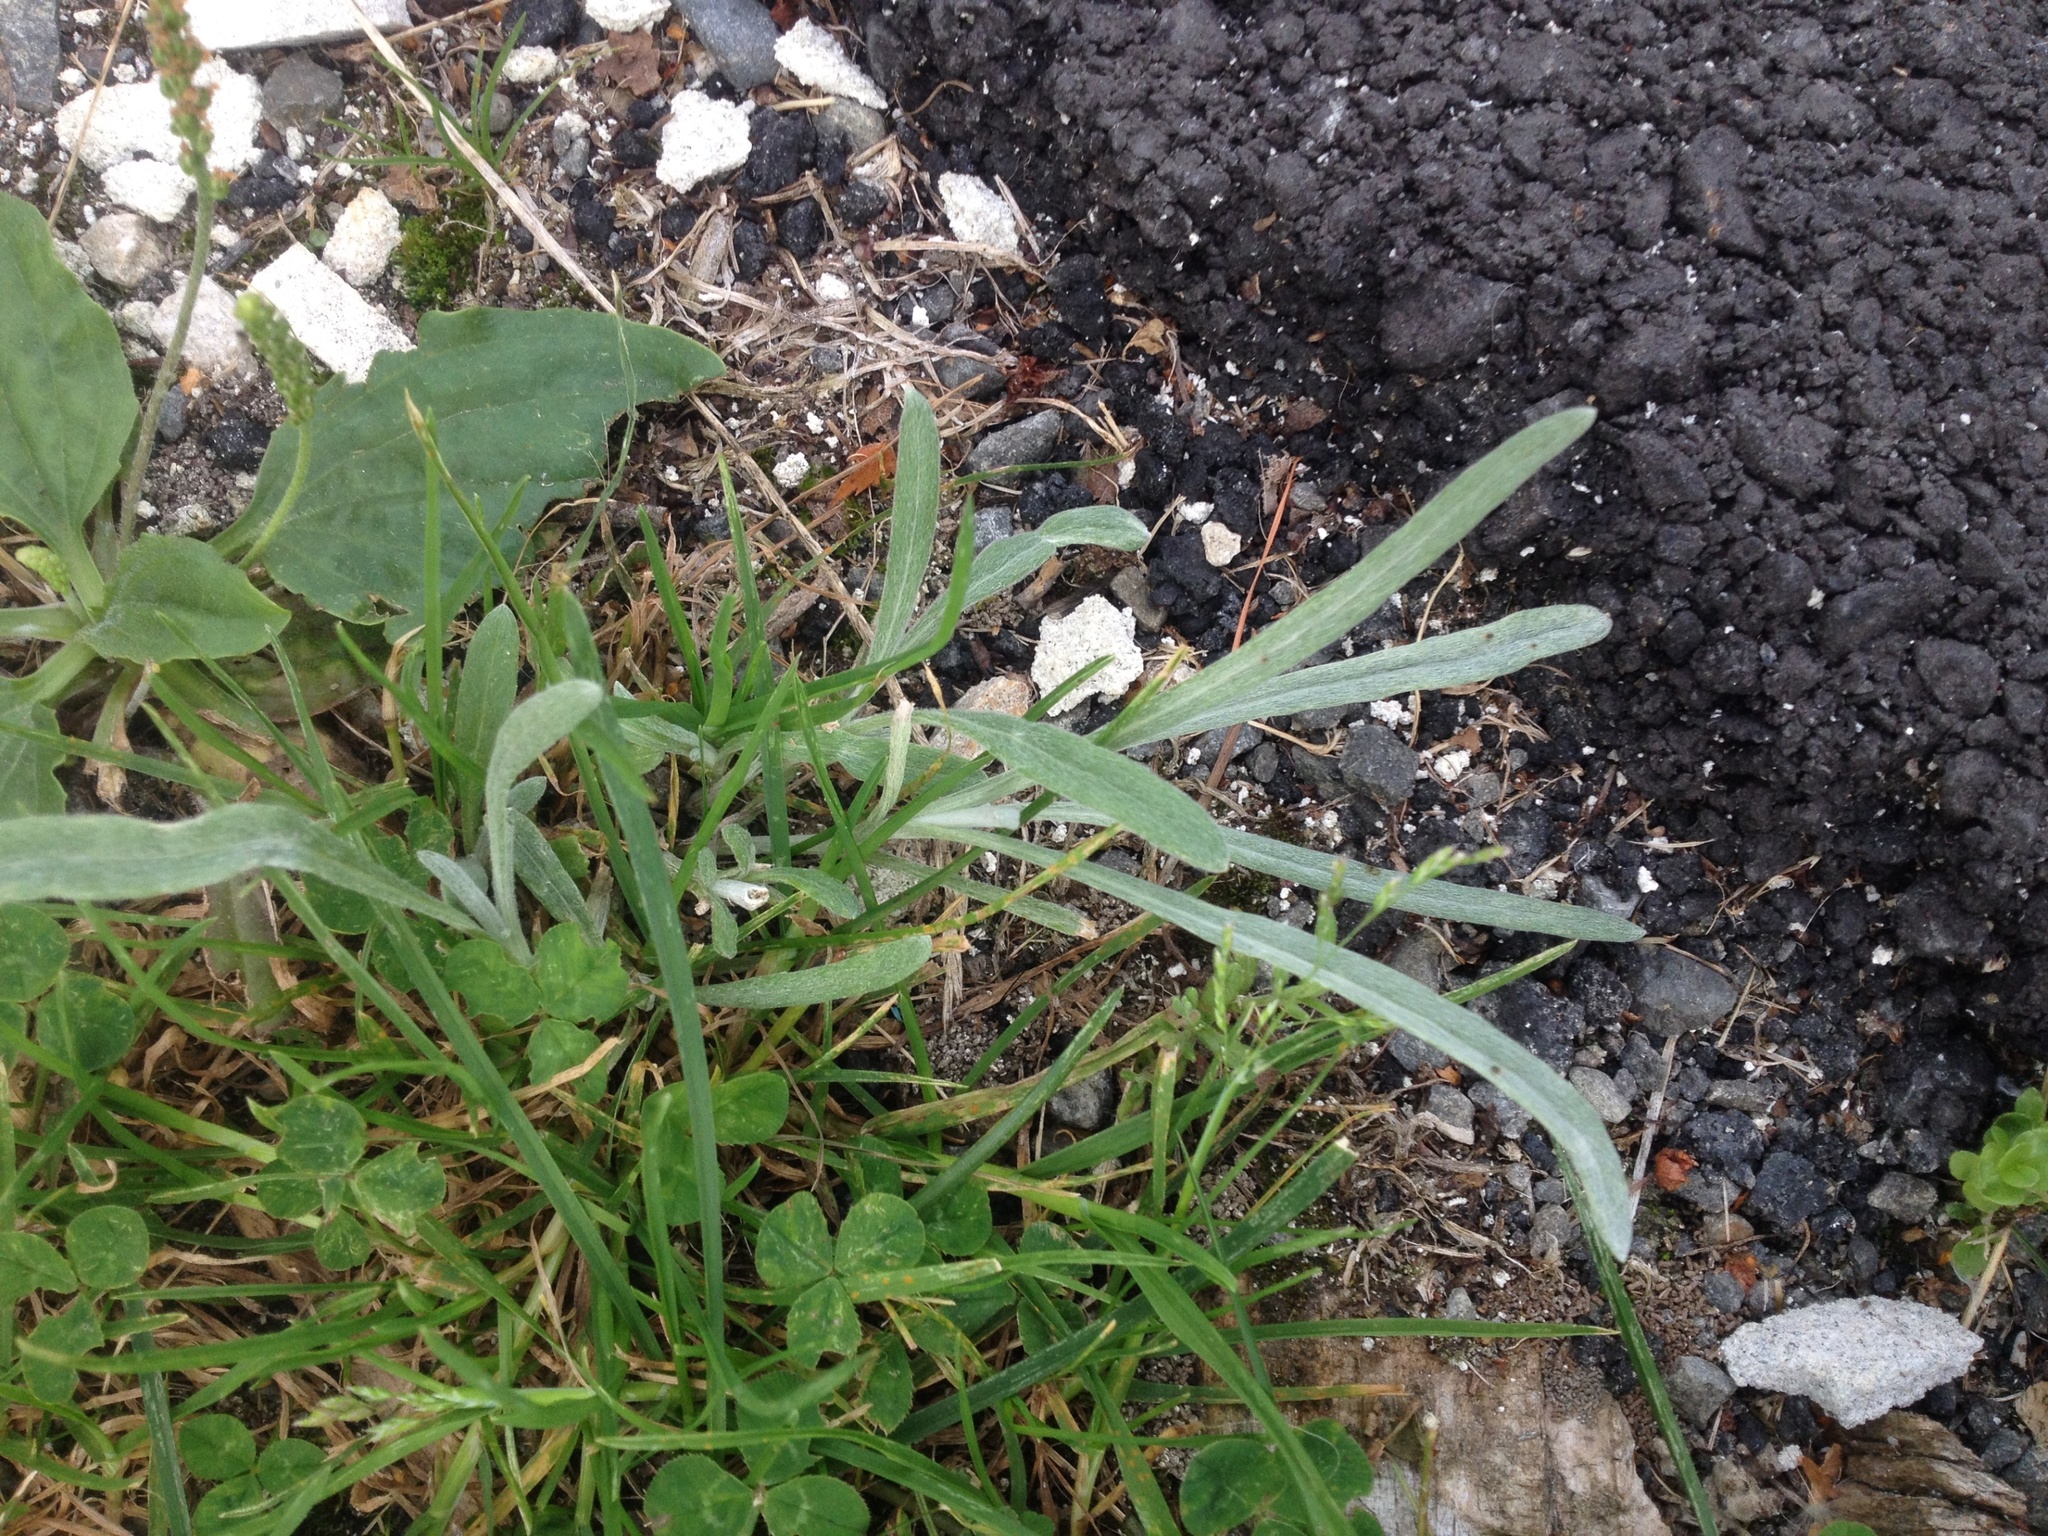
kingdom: Plantae
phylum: Tracheophyta
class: Magnoliopsida
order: Asterales
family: Asteraceae
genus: Senecio
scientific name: Senecio quadridentatus
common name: Cotton fireweed
